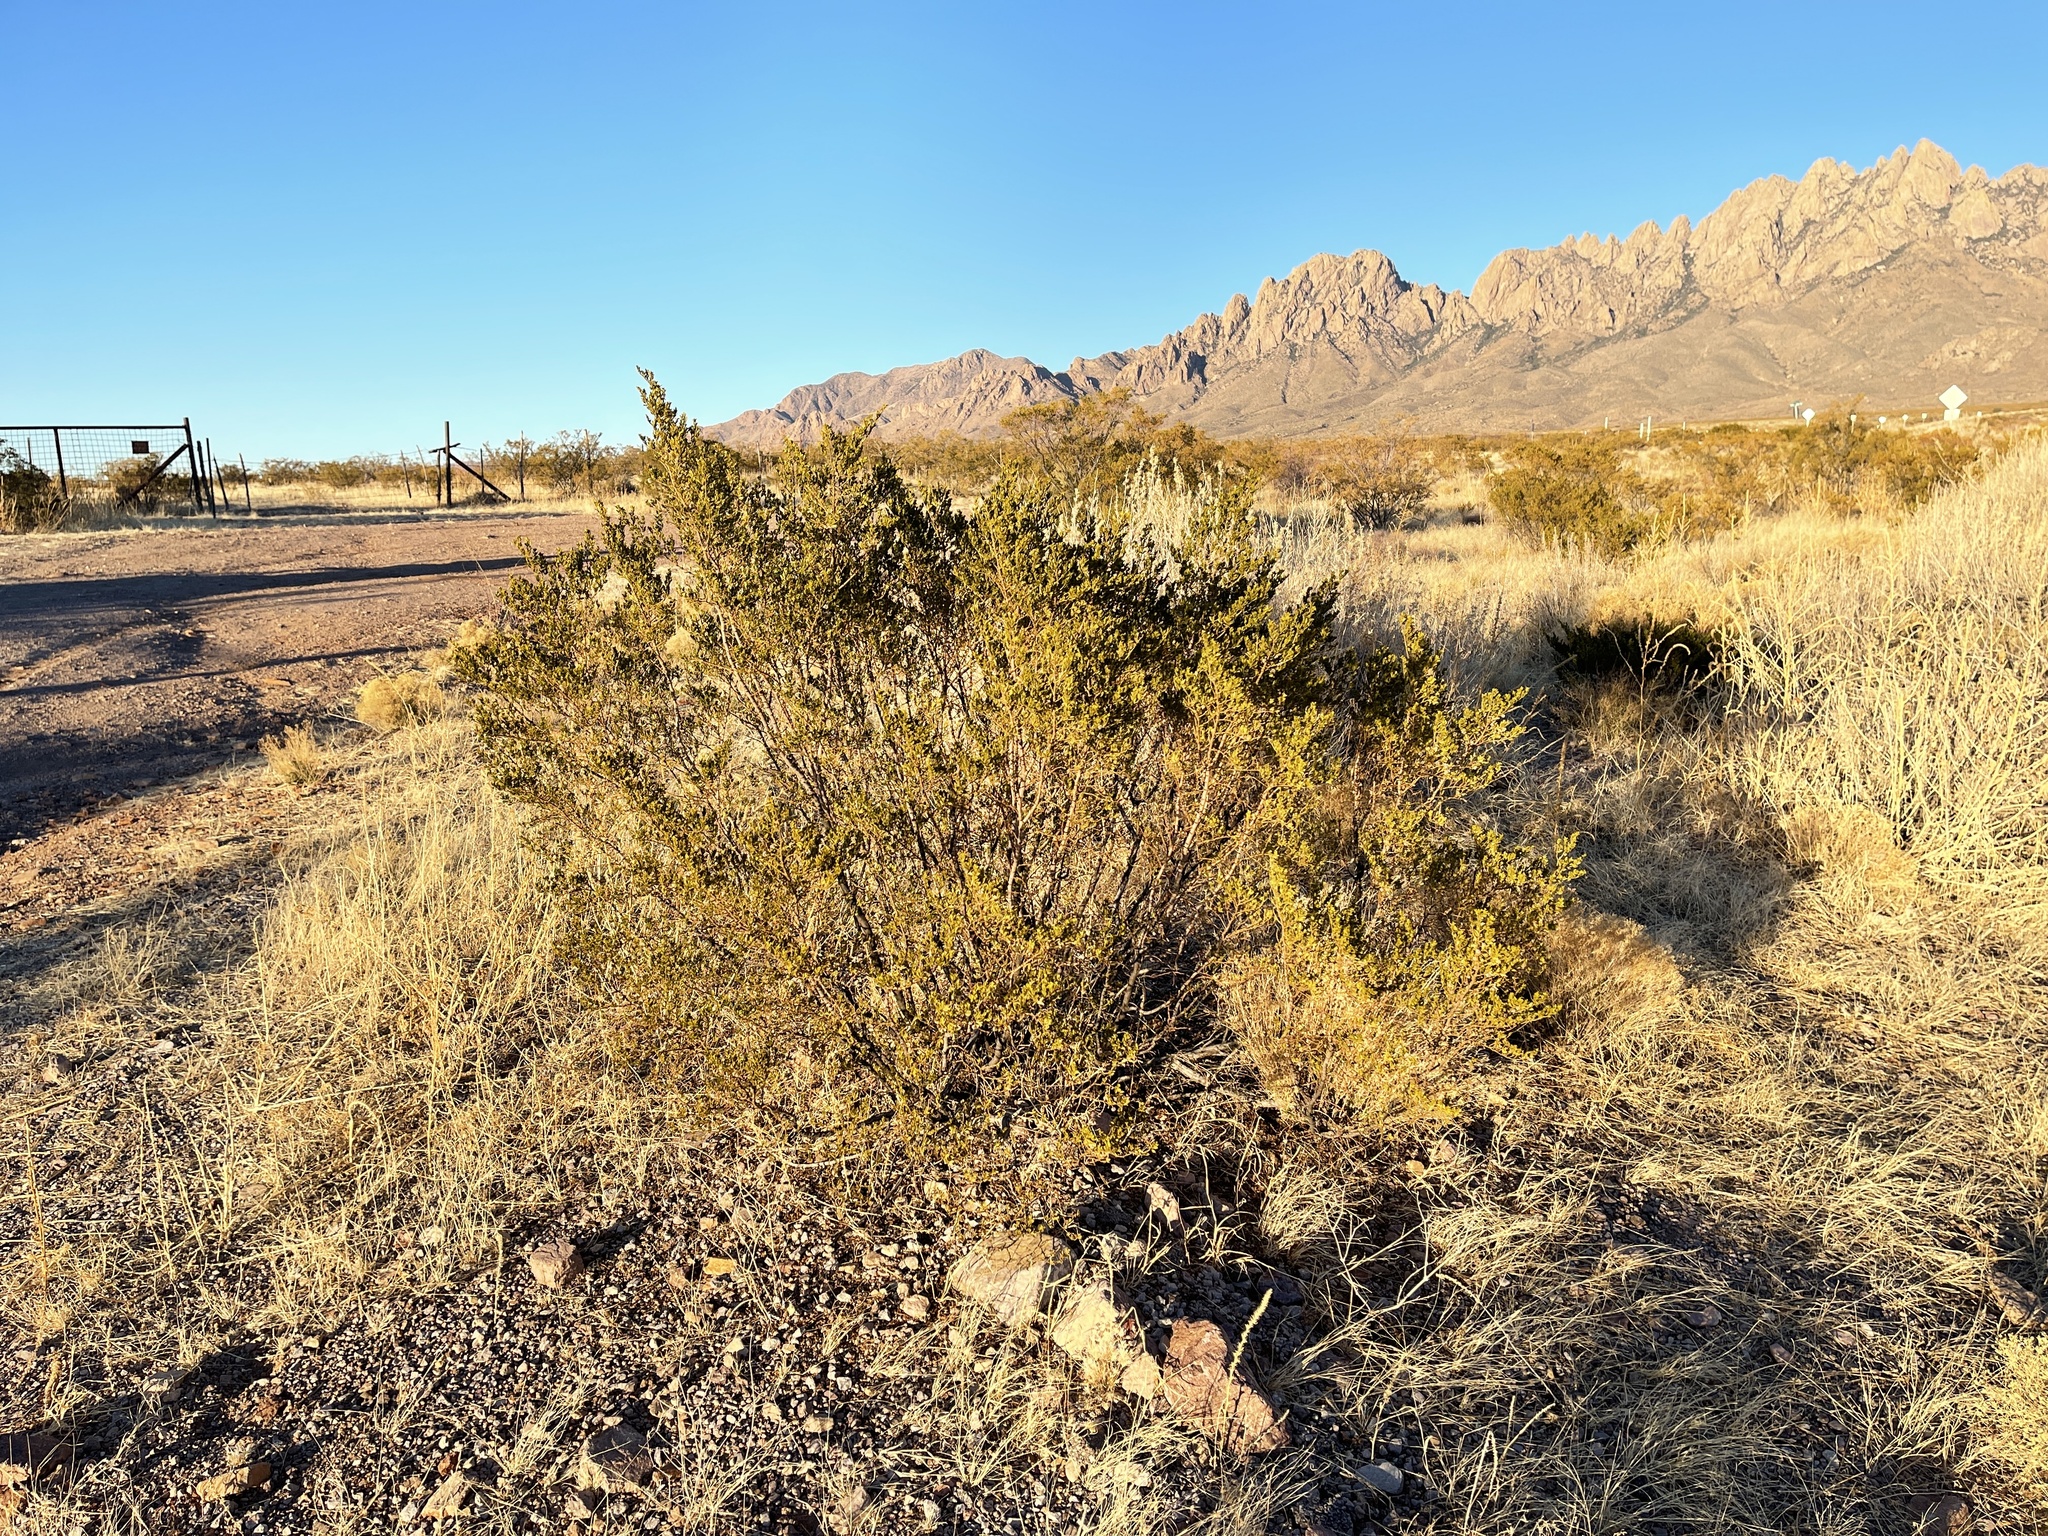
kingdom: Plantae
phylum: Tracheophyta
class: Magnoliopsida
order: Zygophyllales
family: Zygophyllaceae
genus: Larrea
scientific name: Larrea tridentata
